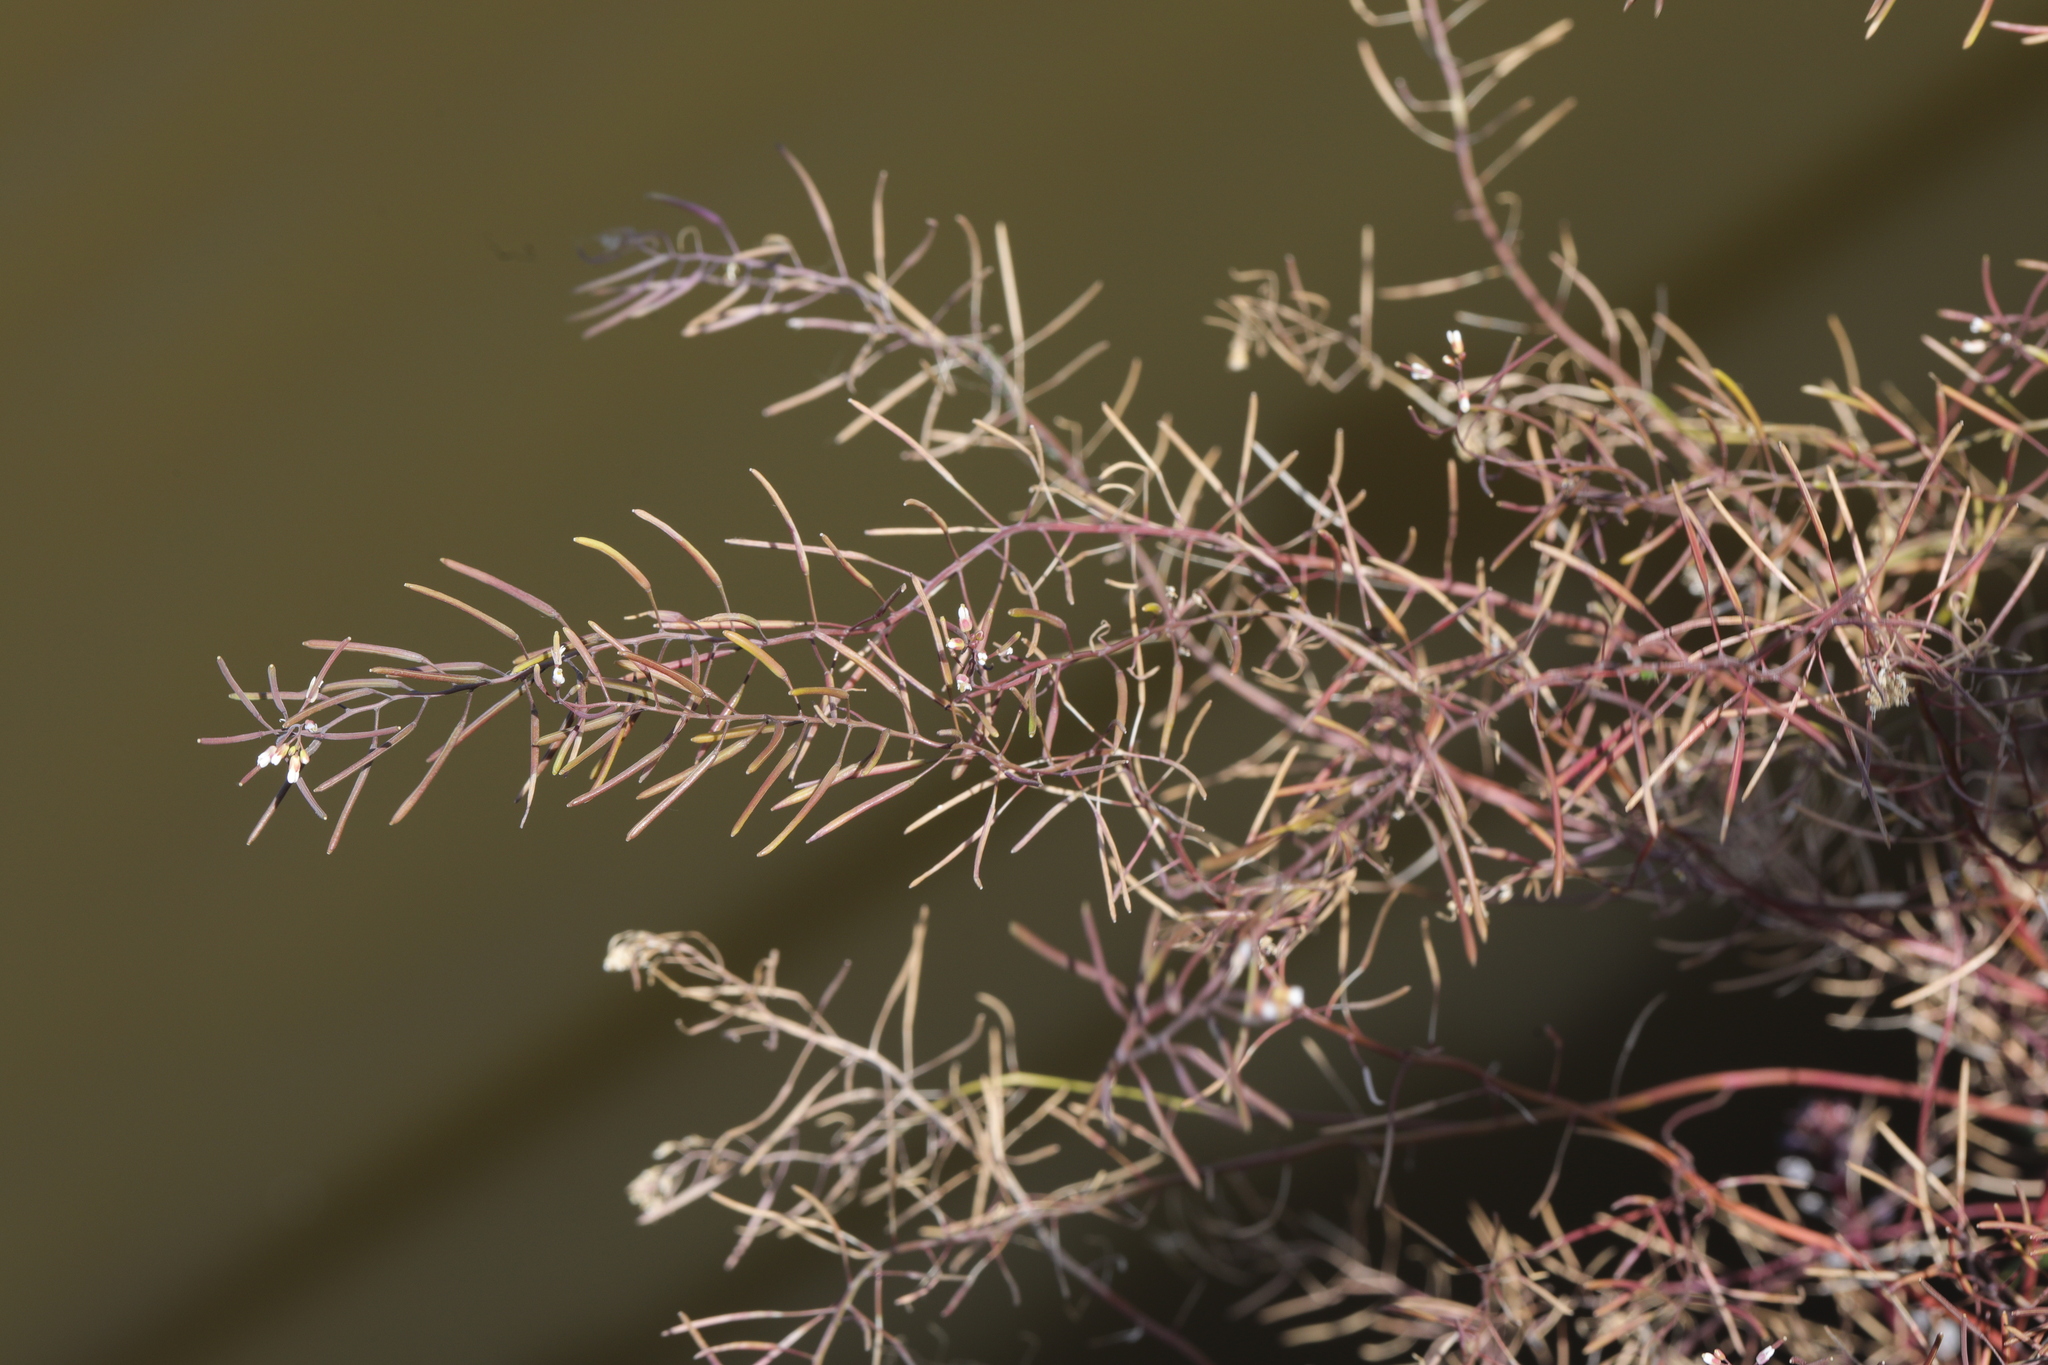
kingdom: Plantae
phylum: Tracheophyta
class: Magnoliopsida
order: Brassicales
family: Brassicaceae
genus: Arabidopsis
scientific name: Arabidopsis thaliana
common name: Thale cress
